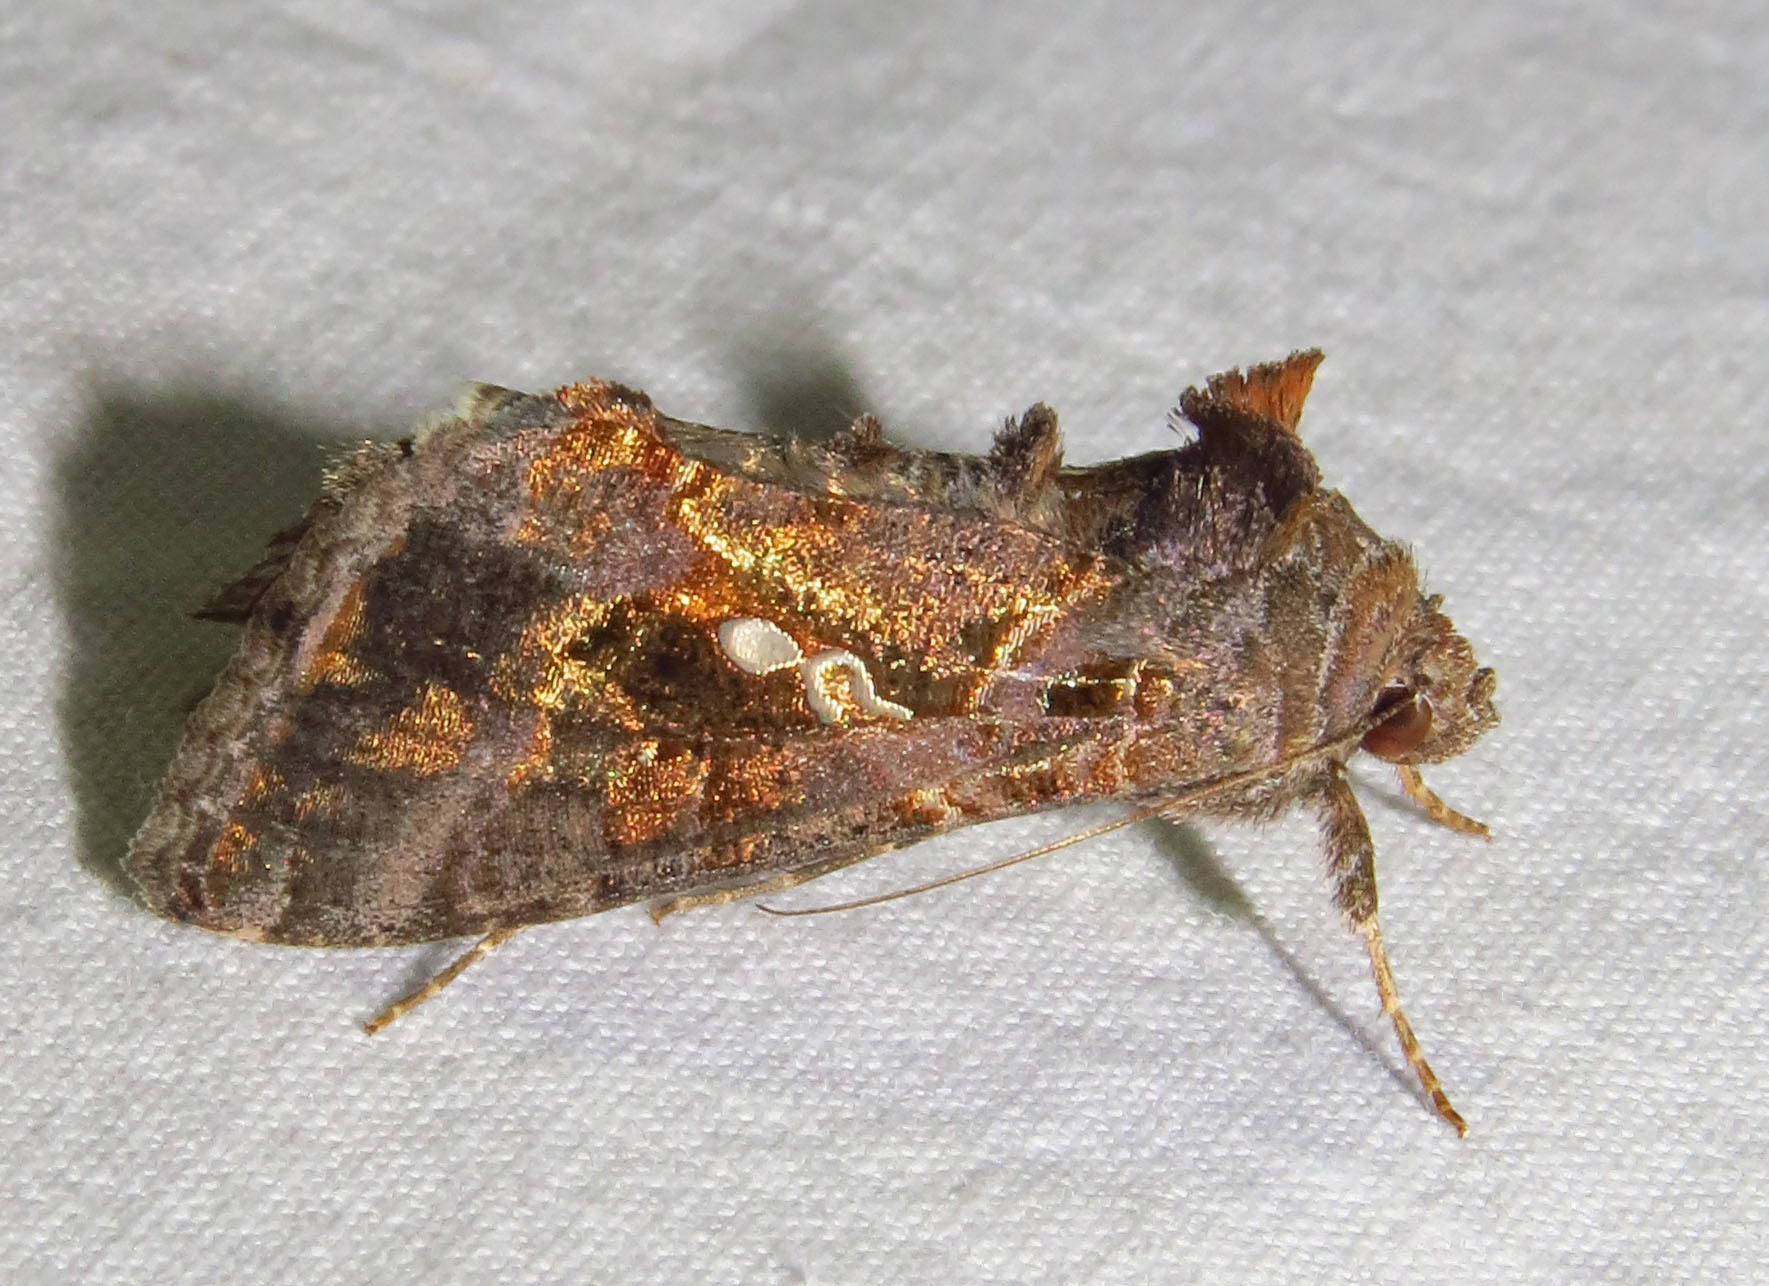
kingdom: Animalia
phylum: Arthropoda
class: Insecta
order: Lepidoptera
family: Noctuidae
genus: Chrysodeixis
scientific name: Chrysodeixis includens
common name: Cutworm moth
